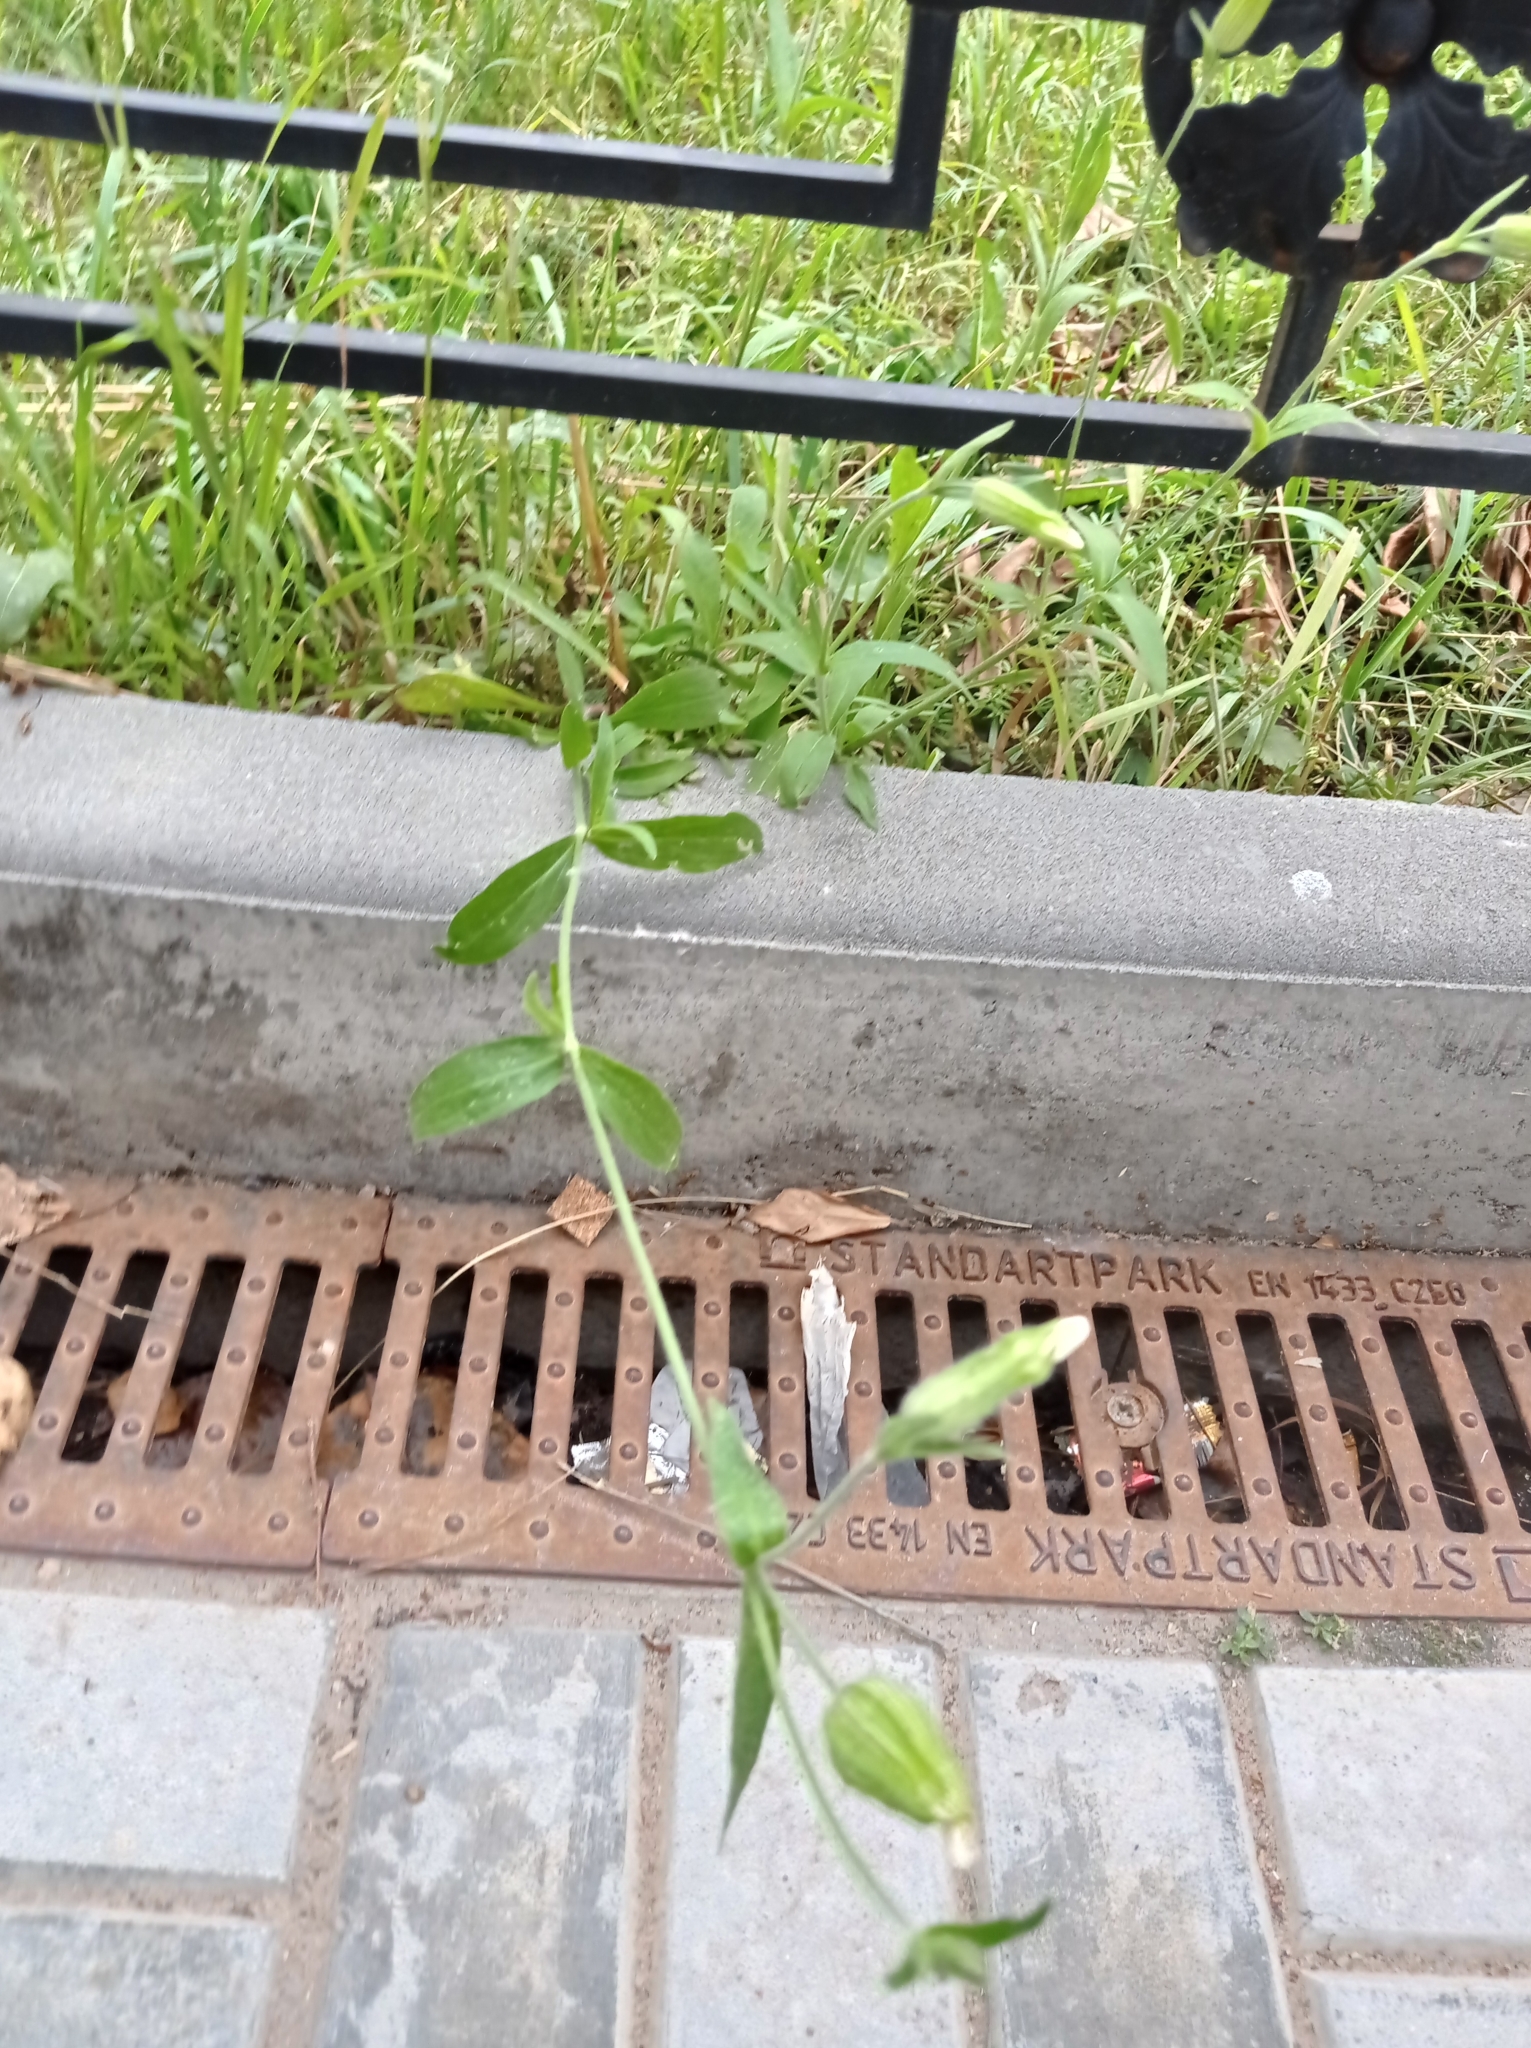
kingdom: Plantae
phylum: Tracheophyta
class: Magnoliopsida
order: Caryophyllales
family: Caryophyllaceae
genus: Silene
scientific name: Silene latifolia
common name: White campion
